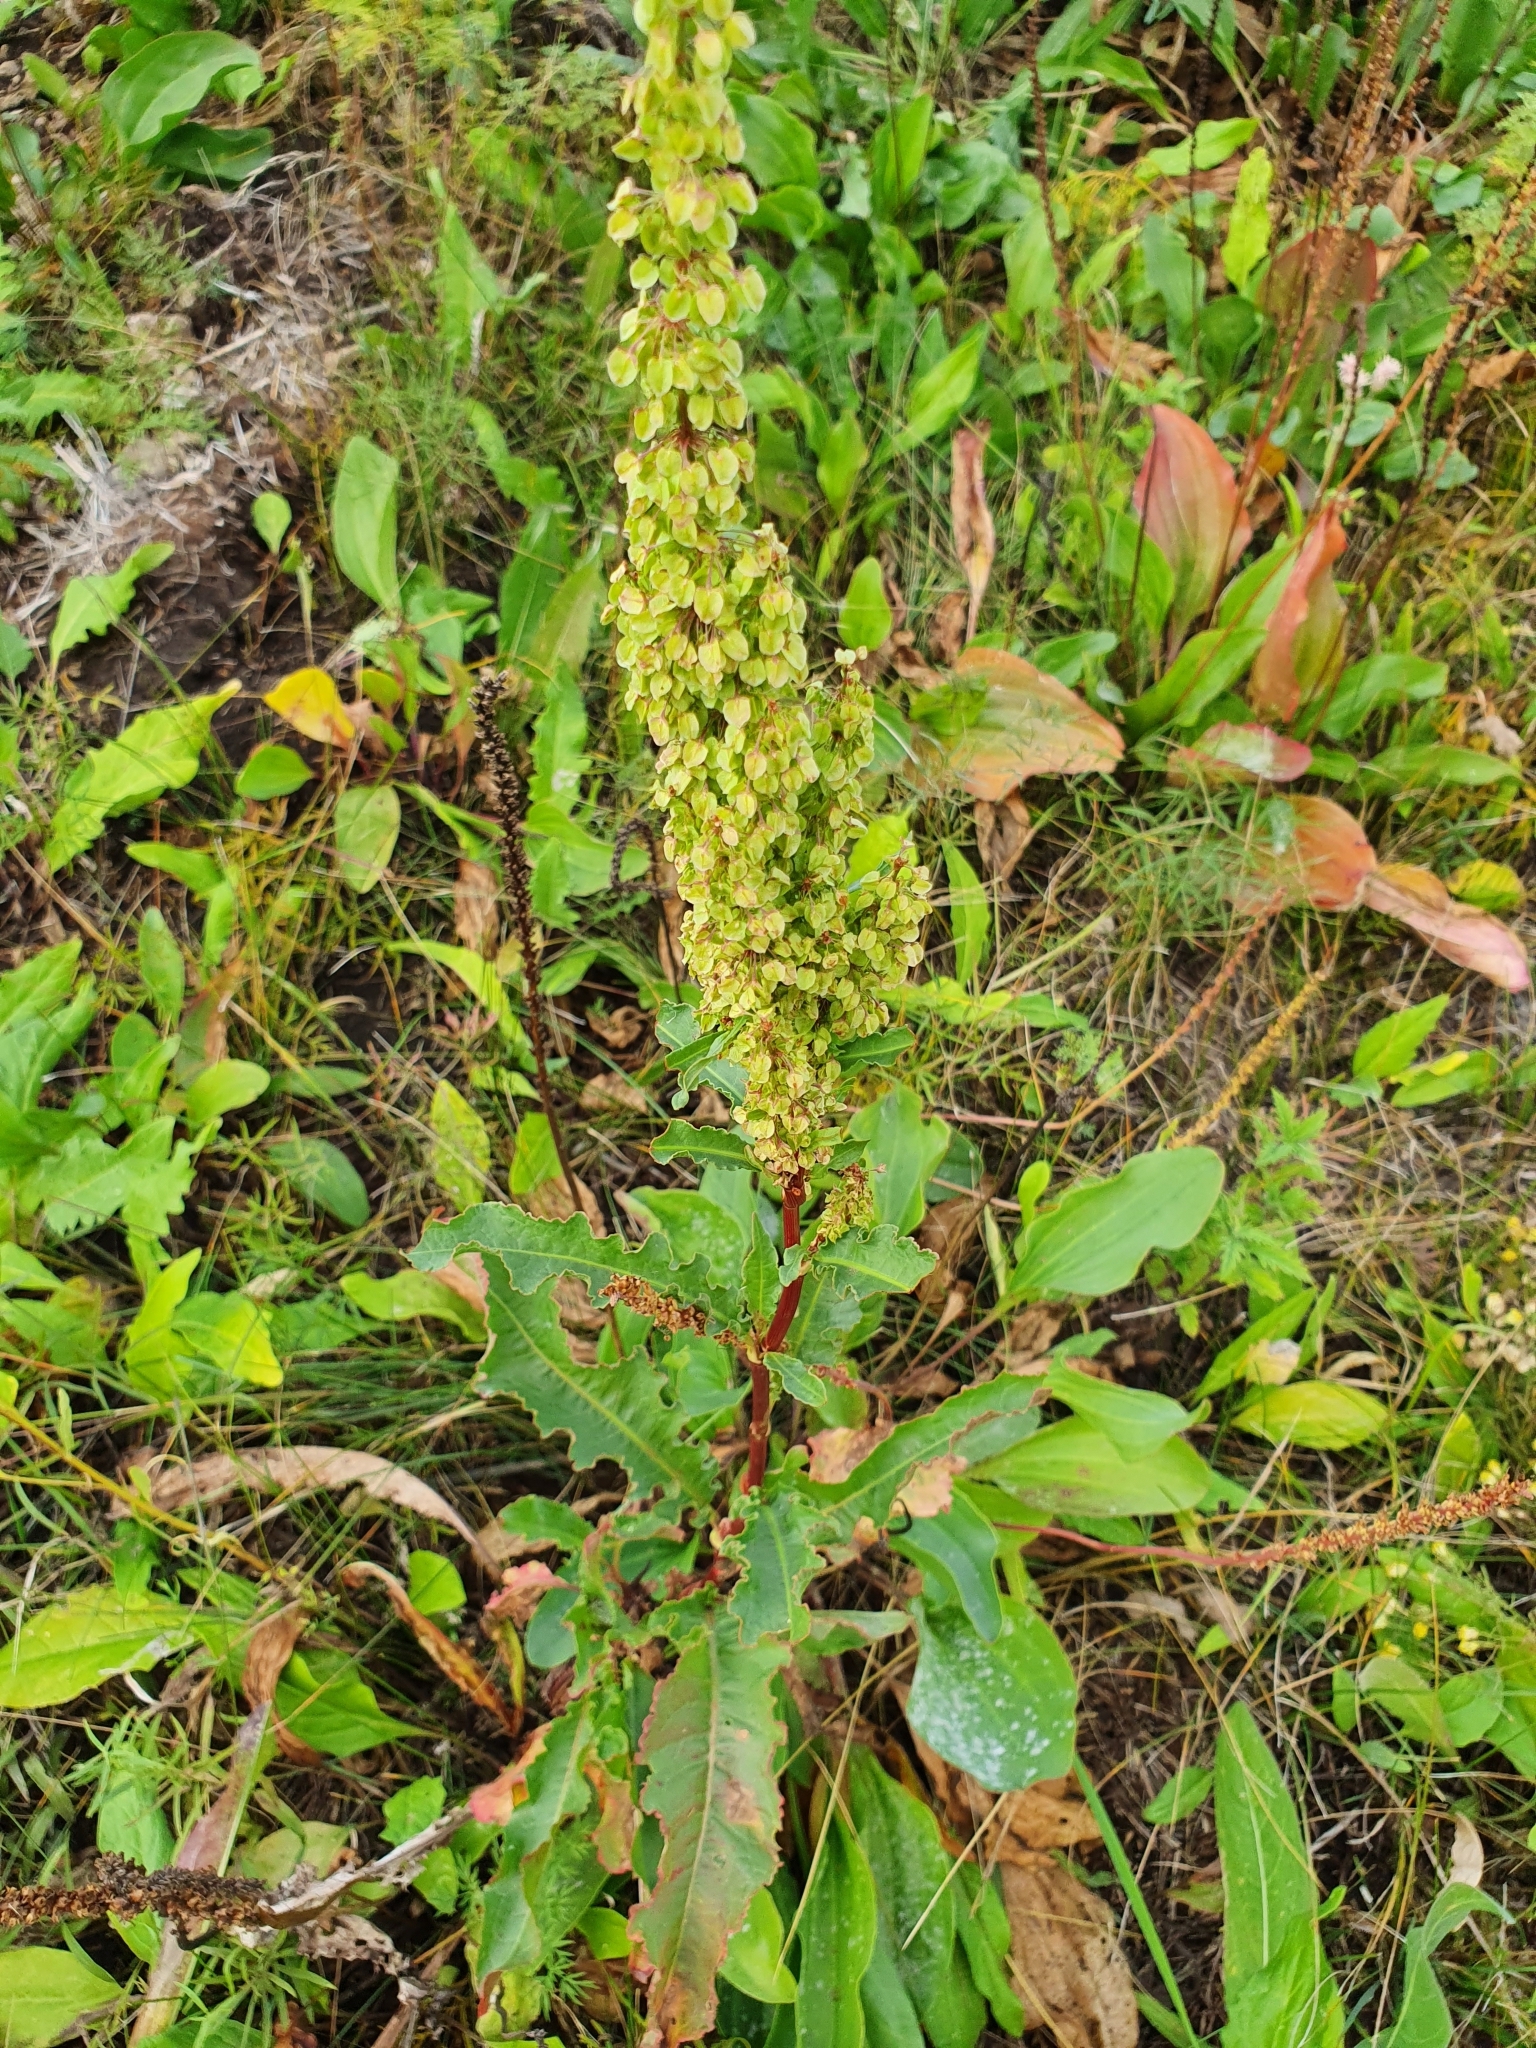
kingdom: Plantae
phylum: Tracheophyta
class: Magnoliopsida
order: Caryophyllales
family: Polygonaceae
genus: Rumex
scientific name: Rumex pseudonatronatus
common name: Field dock
